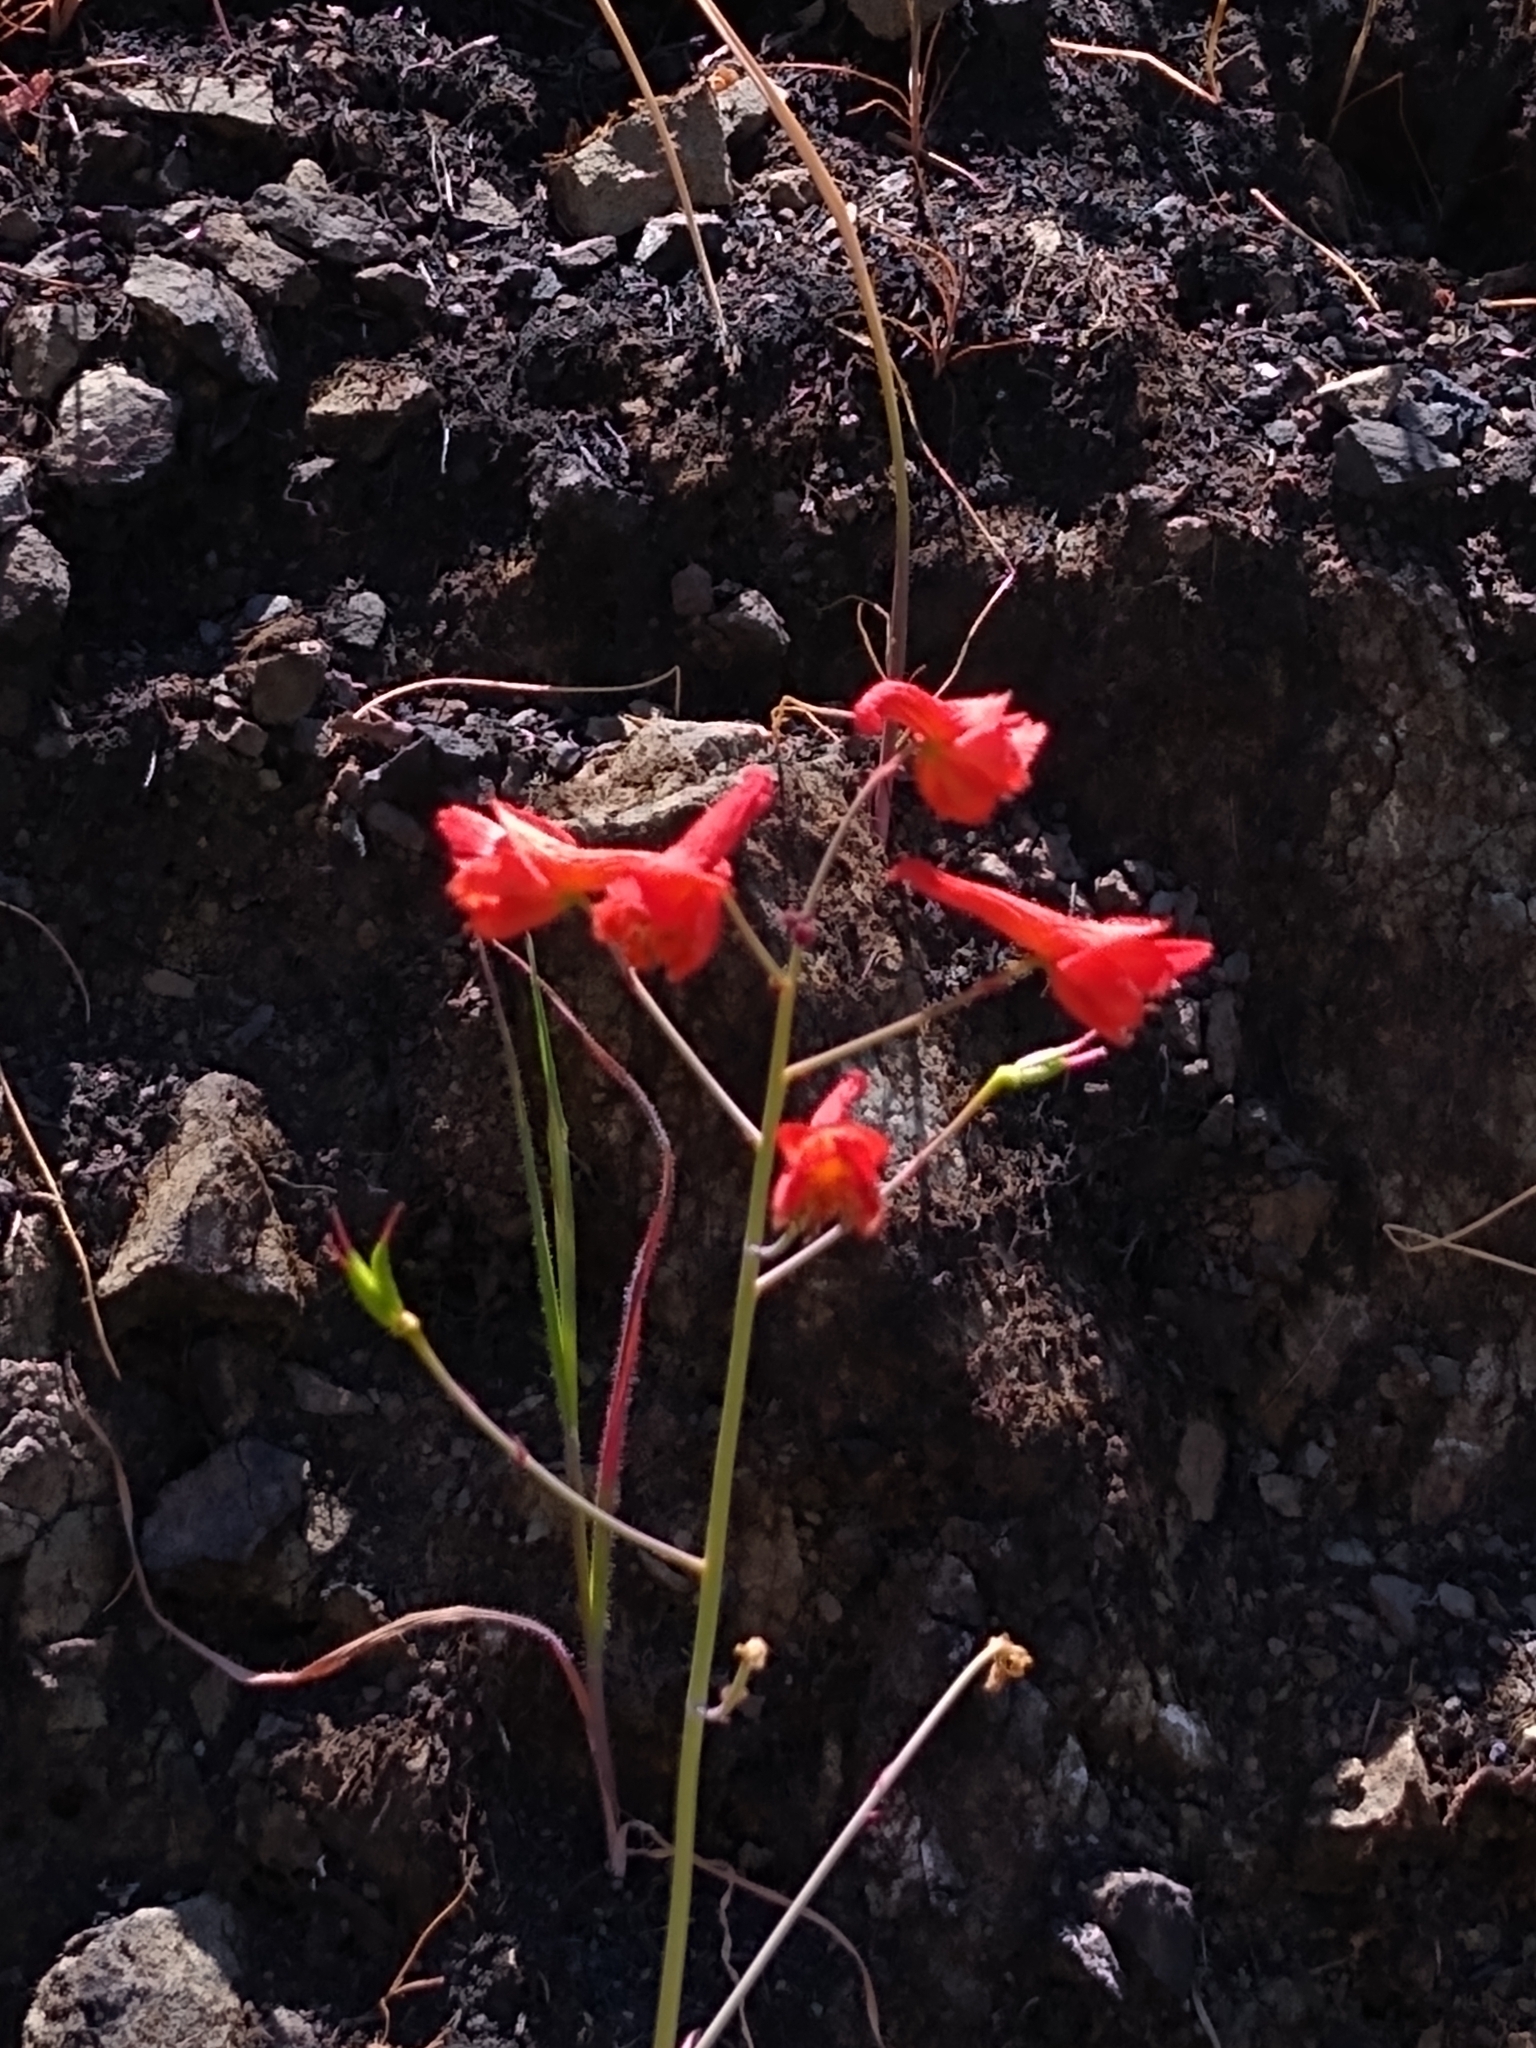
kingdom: Plantae
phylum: Tracheophyta
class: Magnoliopsida
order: Ranunculales
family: Ranunculaceae
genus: Delphinium
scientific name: Delphinium nudicaule
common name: Red larkspur
